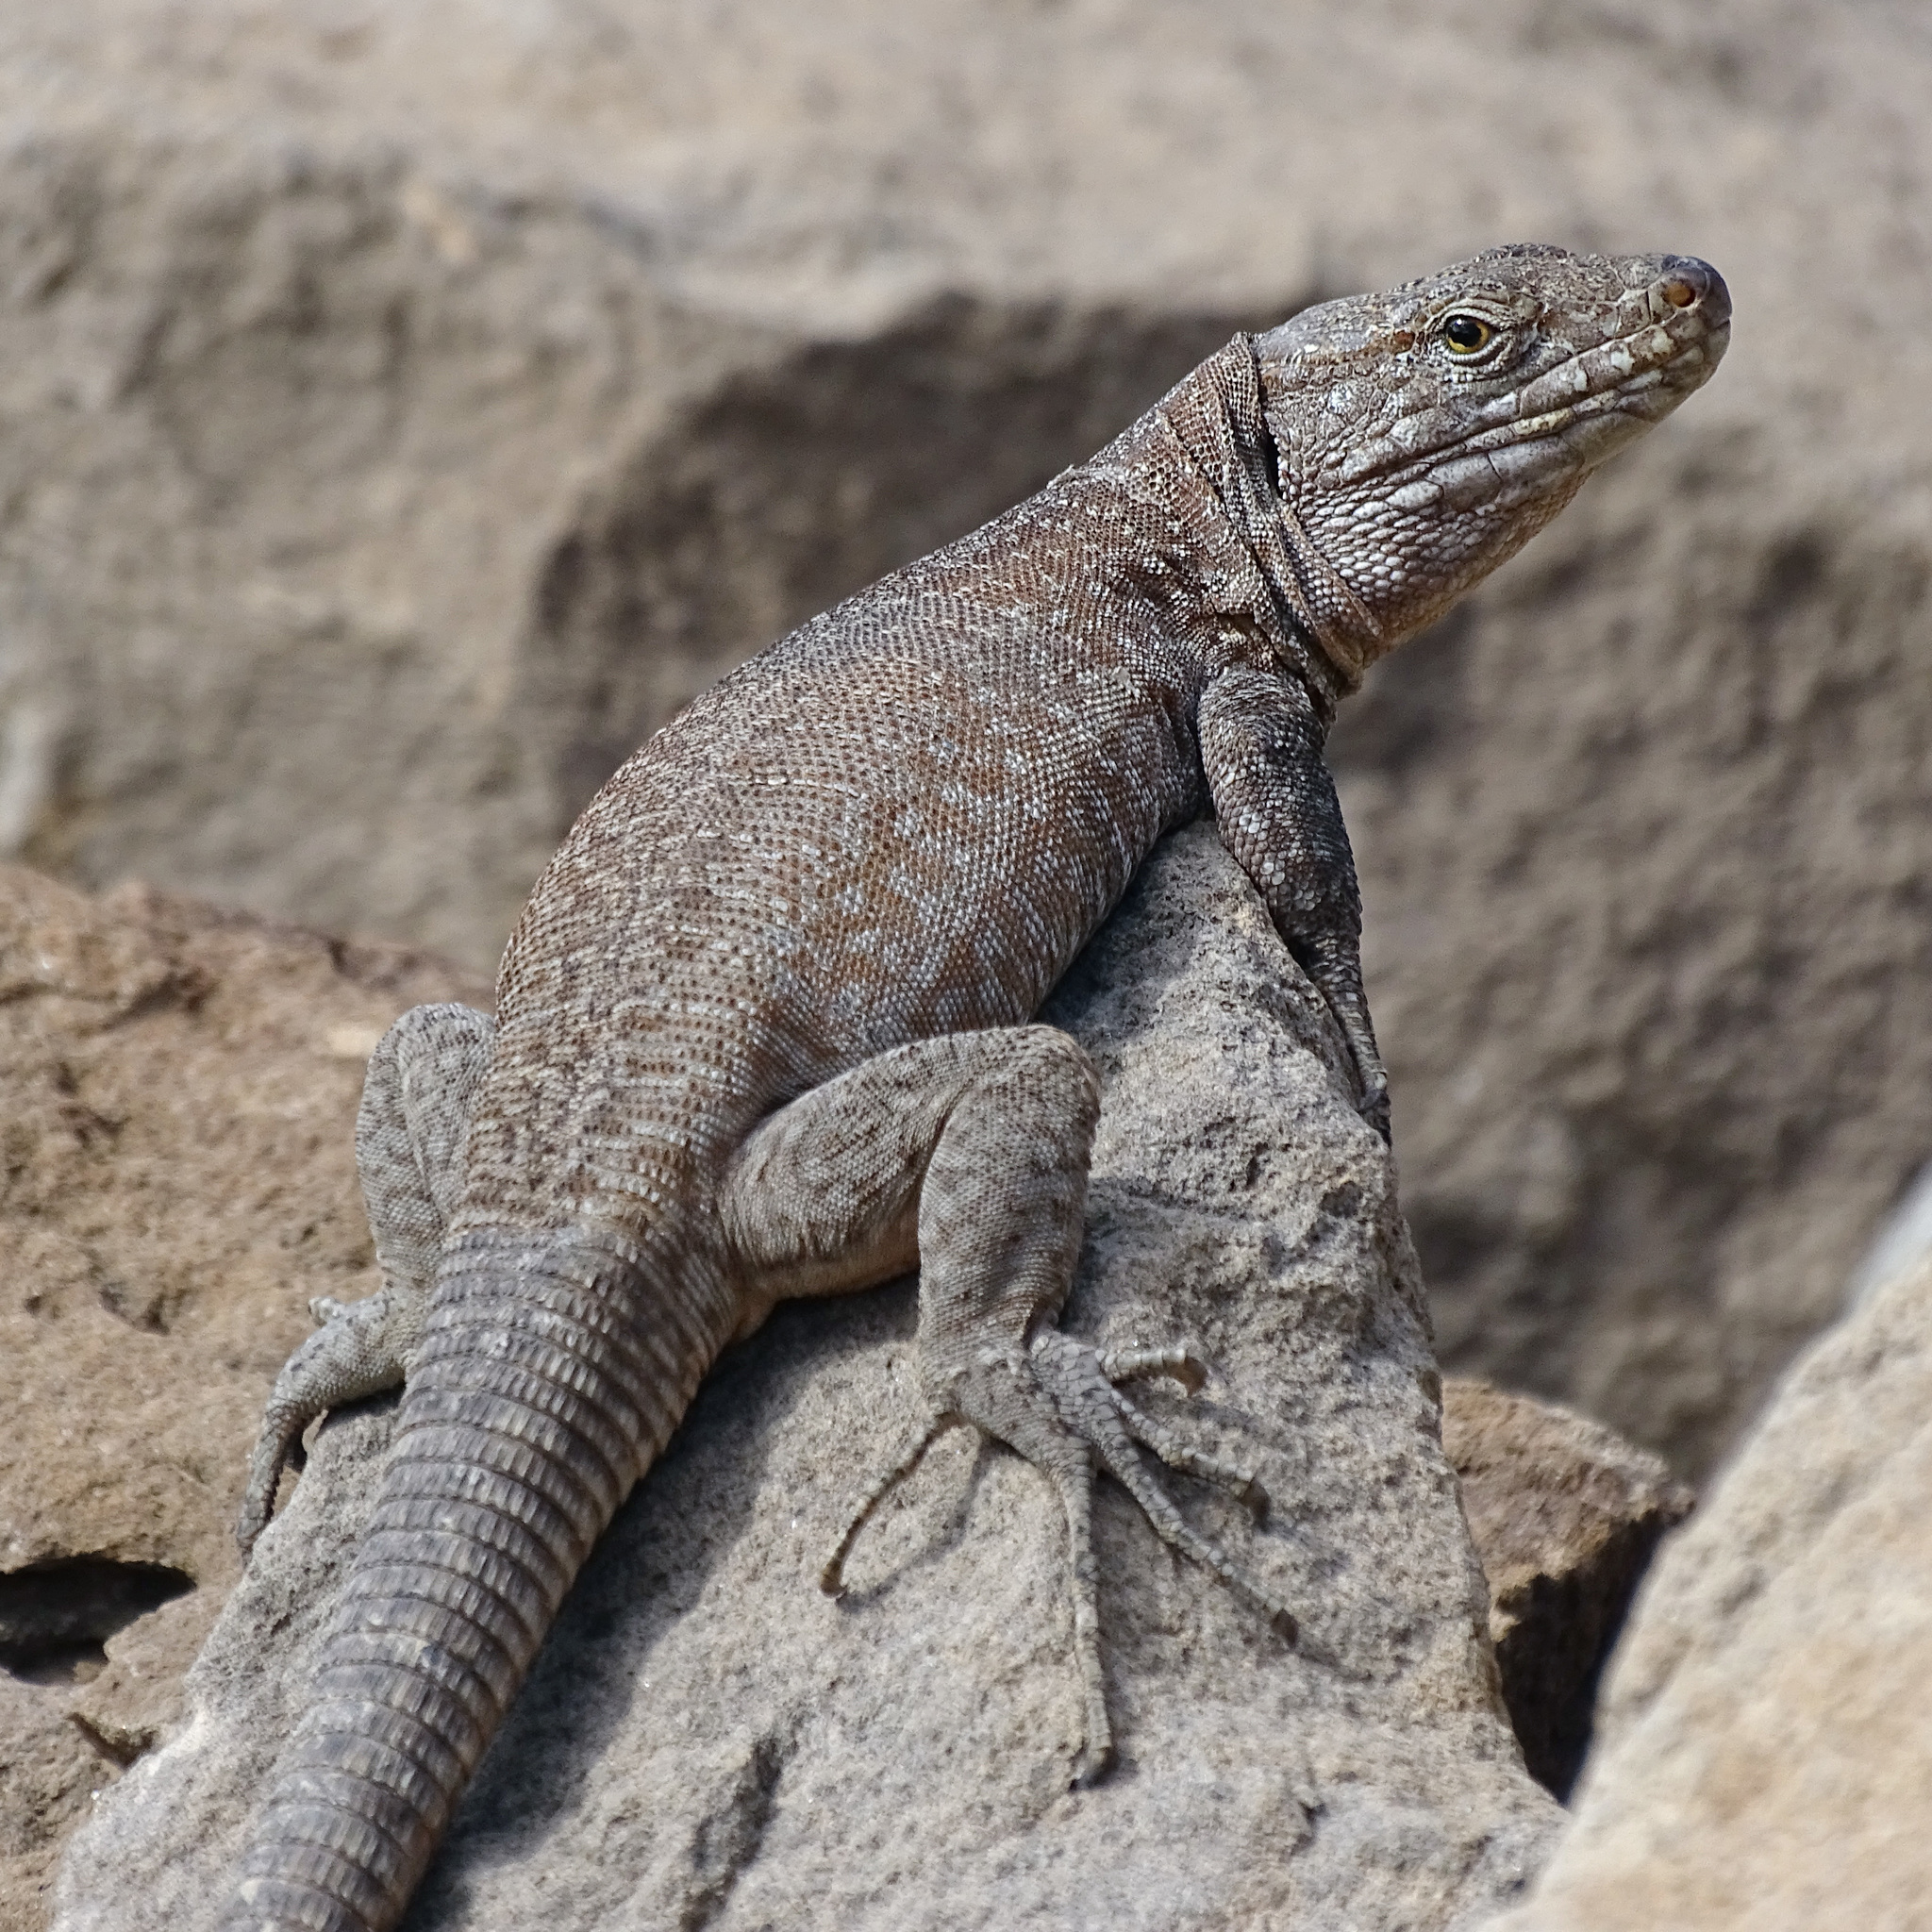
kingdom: Animalia
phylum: Chordata
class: Squamata
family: Lacertidae
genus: Gallotia
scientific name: Gallotia intermedia
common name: Tenerife speckled lizard
